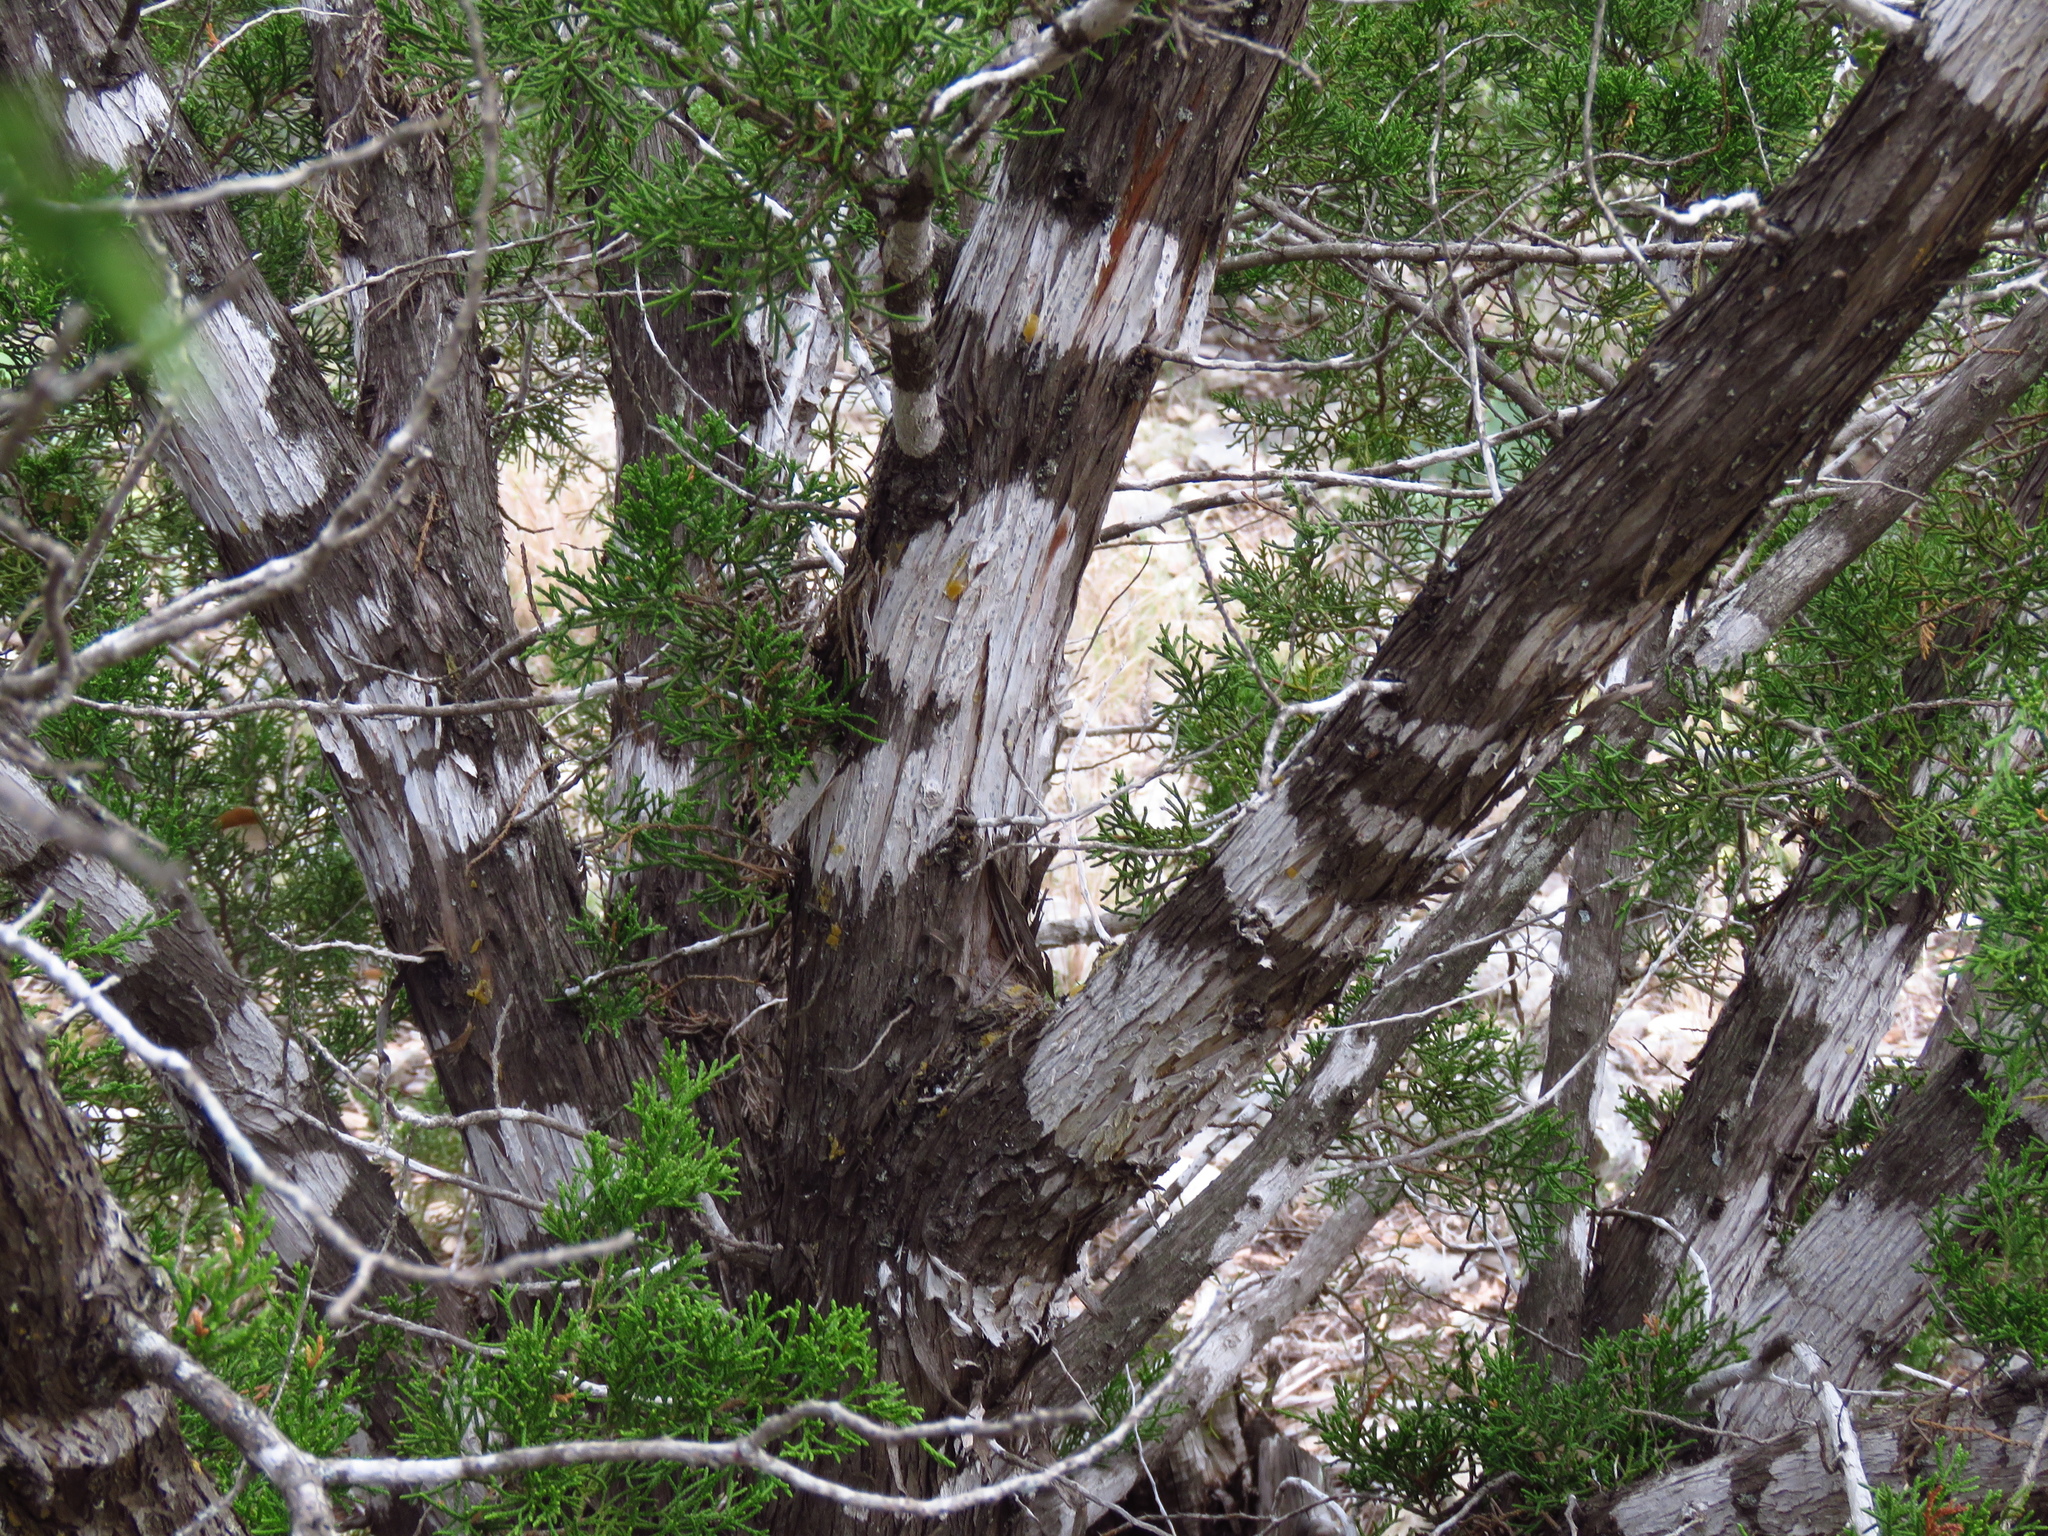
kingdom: Fungi
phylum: Ascomycota
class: Lecanoromycetes
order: Ostropales
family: Stictidaceae
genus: Robergea
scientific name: Robergea
